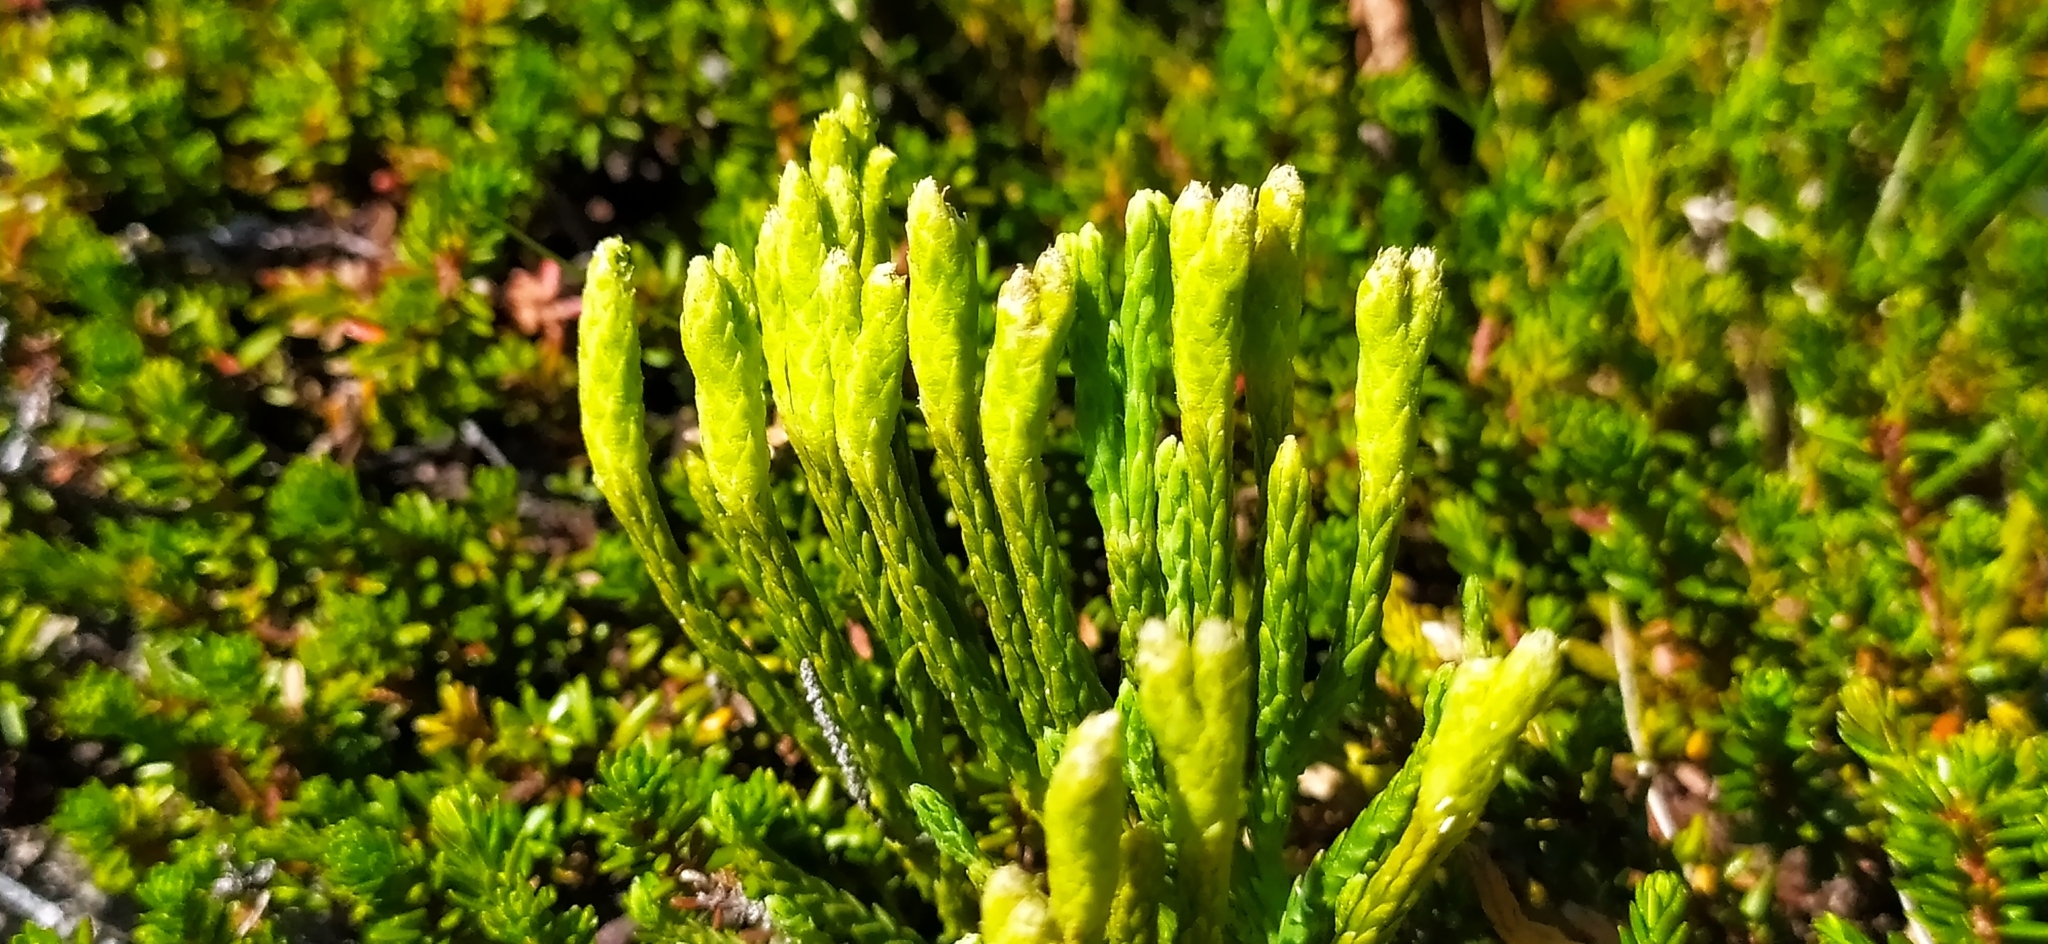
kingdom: Plantae
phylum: Tracheophyta
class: Lycopodiopsida
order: Lycopodiales
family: Lycopodiaceae
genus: Diphasiastrum
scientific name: Diphasiastrum issleri
